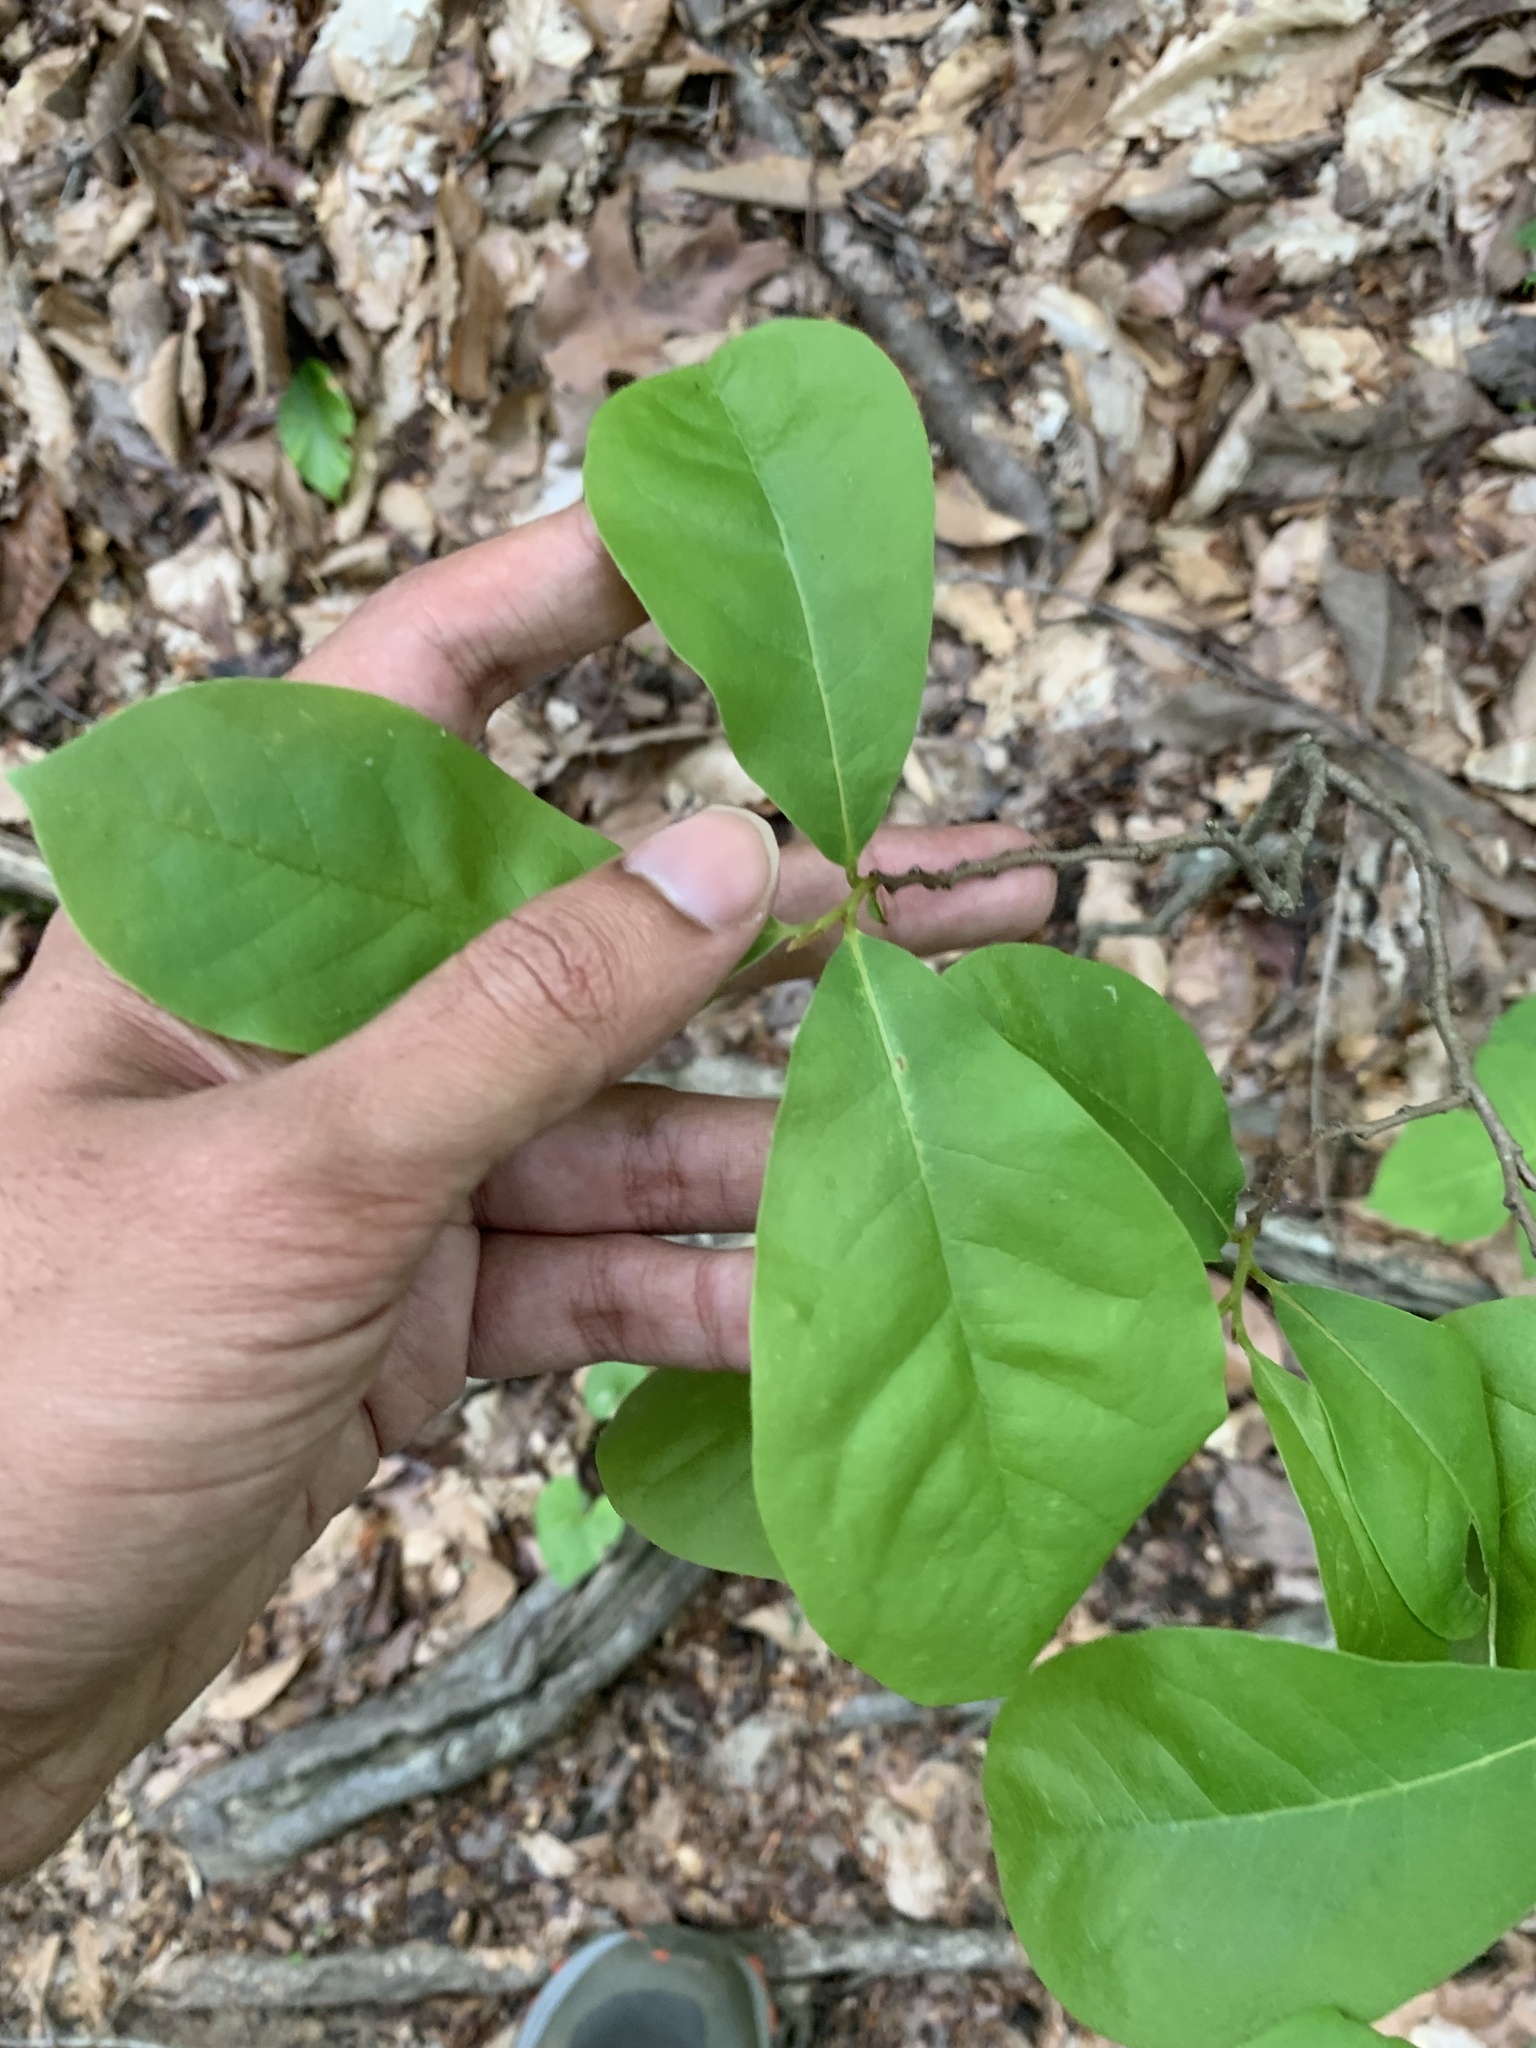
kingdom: Plantae
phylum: Tracheophyta
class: Magnoliopsida
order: Magnoliales
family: Annonaceae
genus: Asimina
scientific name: Asimina parviflora
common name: Dwarf pawpaw
